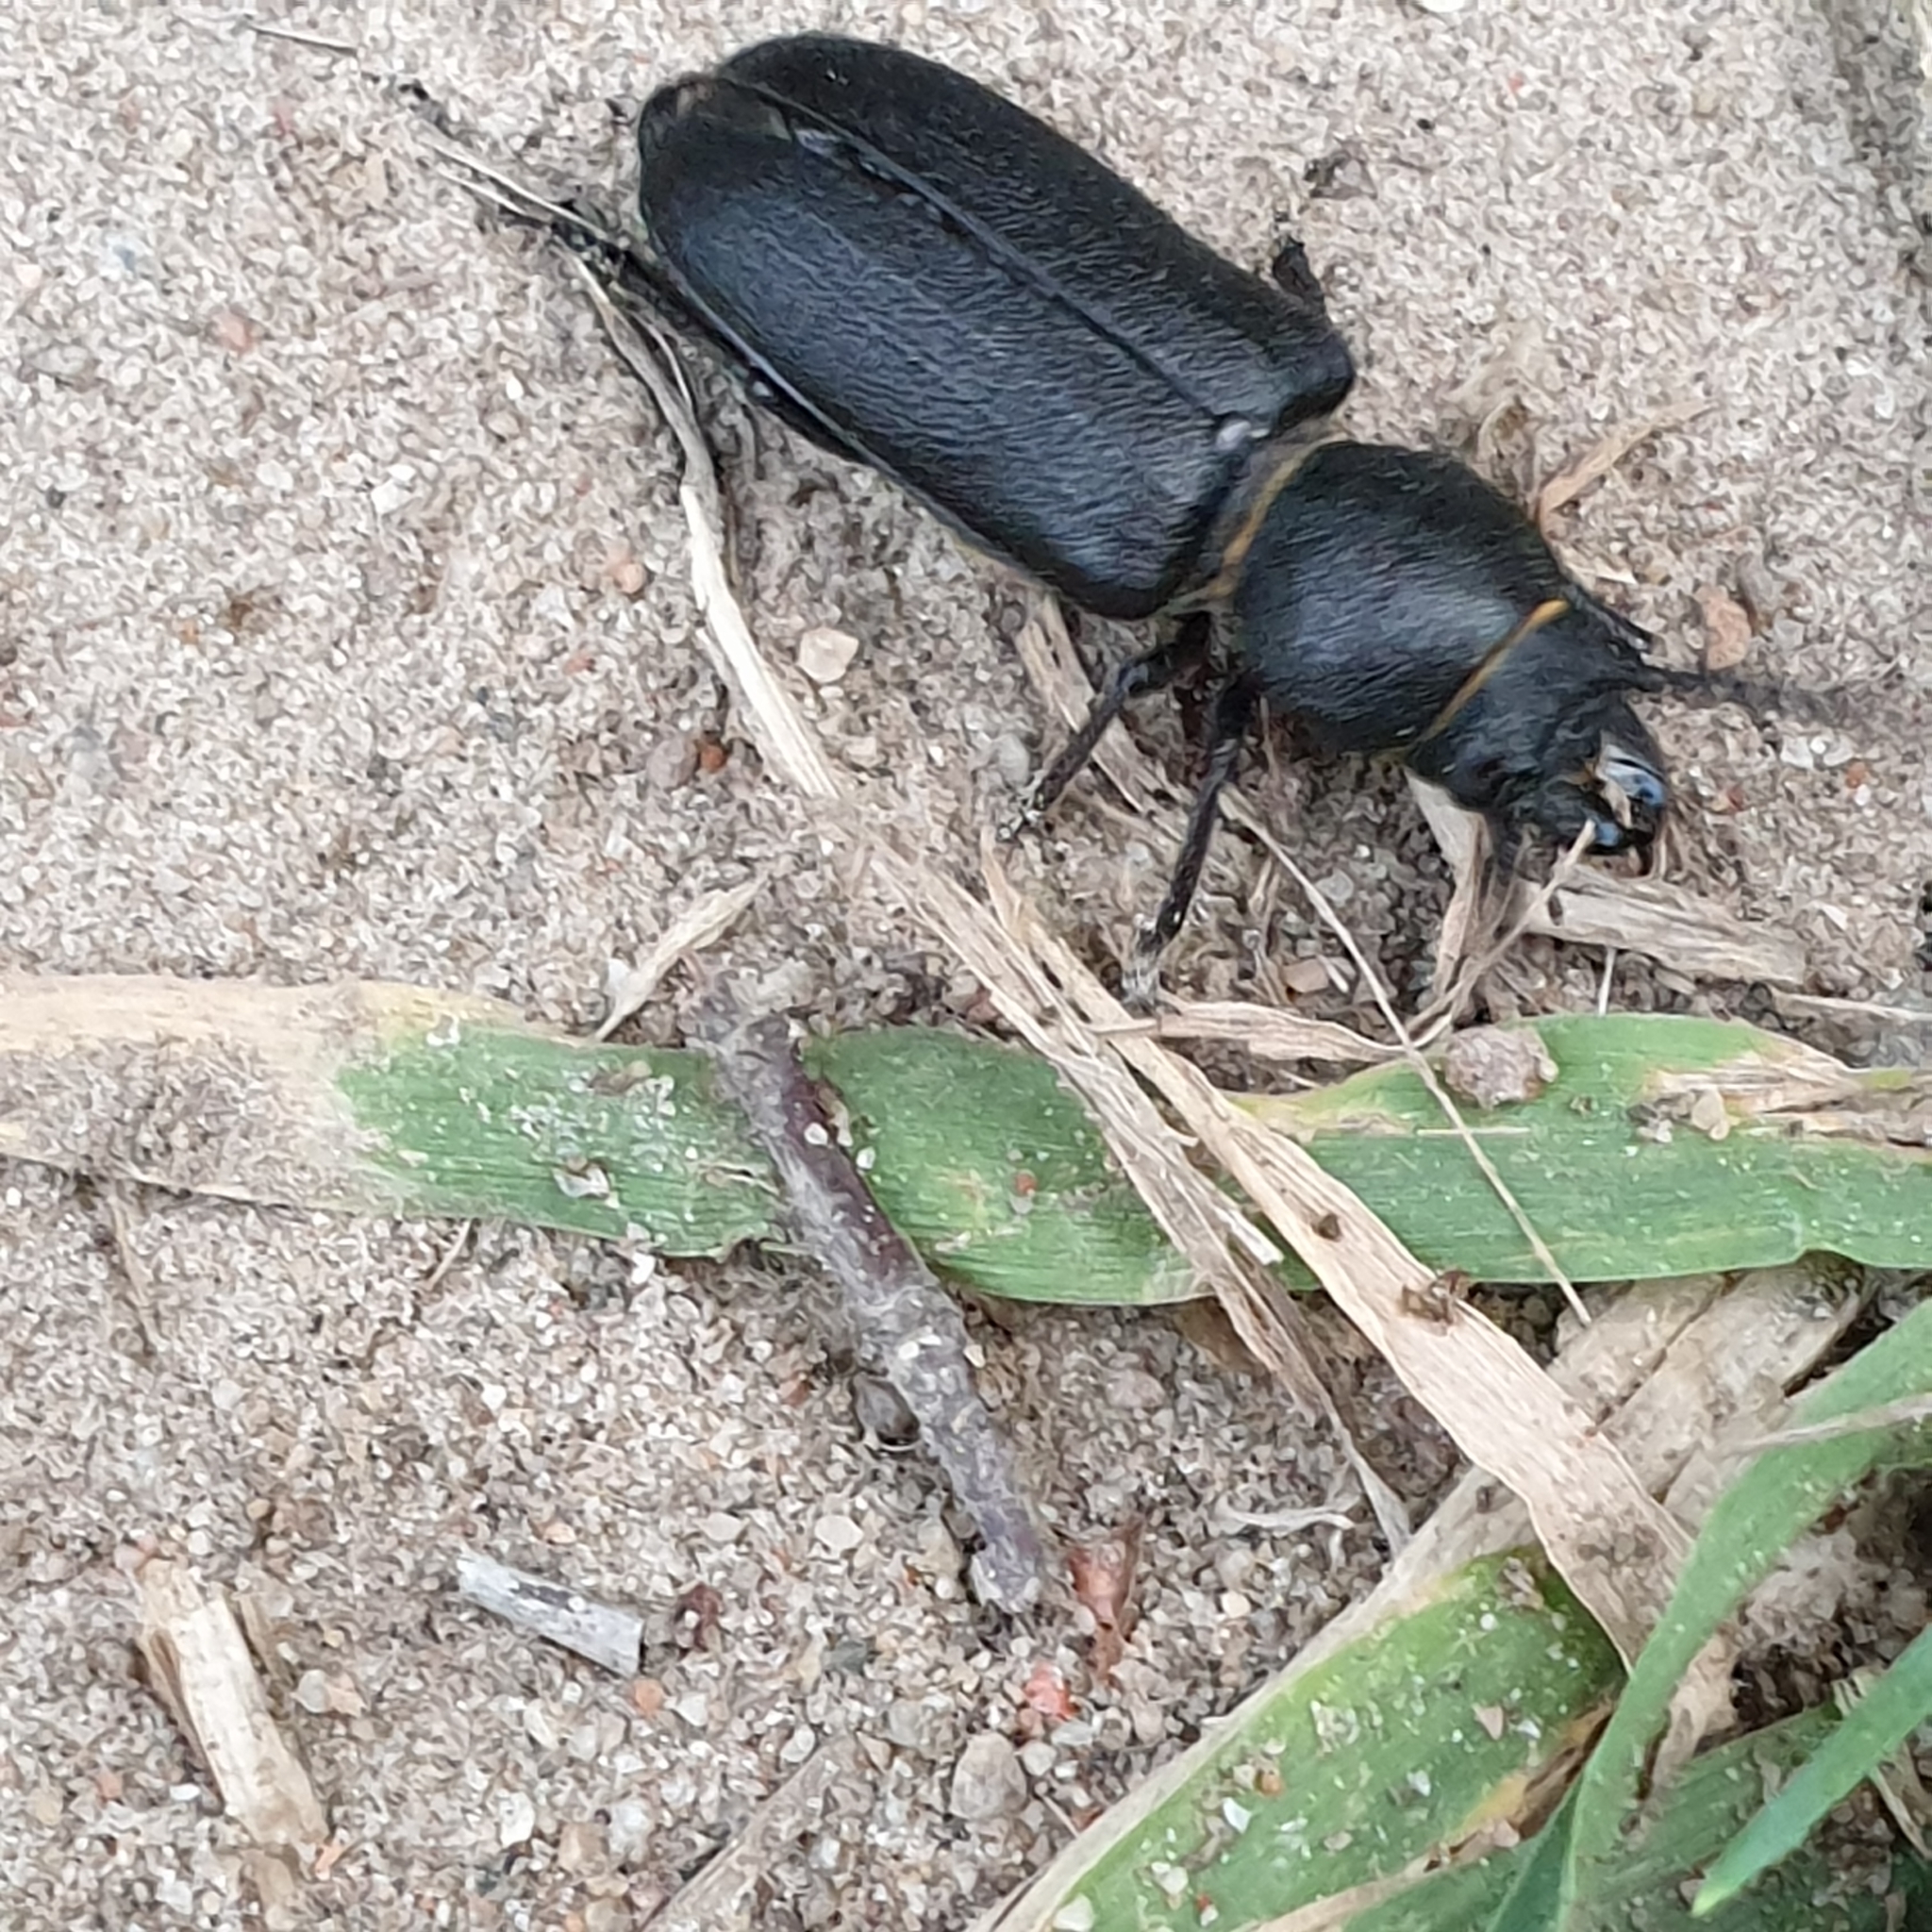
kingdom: Animalia
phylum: Arthropoda
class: Insecta
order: Coleoptera
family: Cerambycidae
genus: Spondylis
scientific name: Spondylis buprestoides
